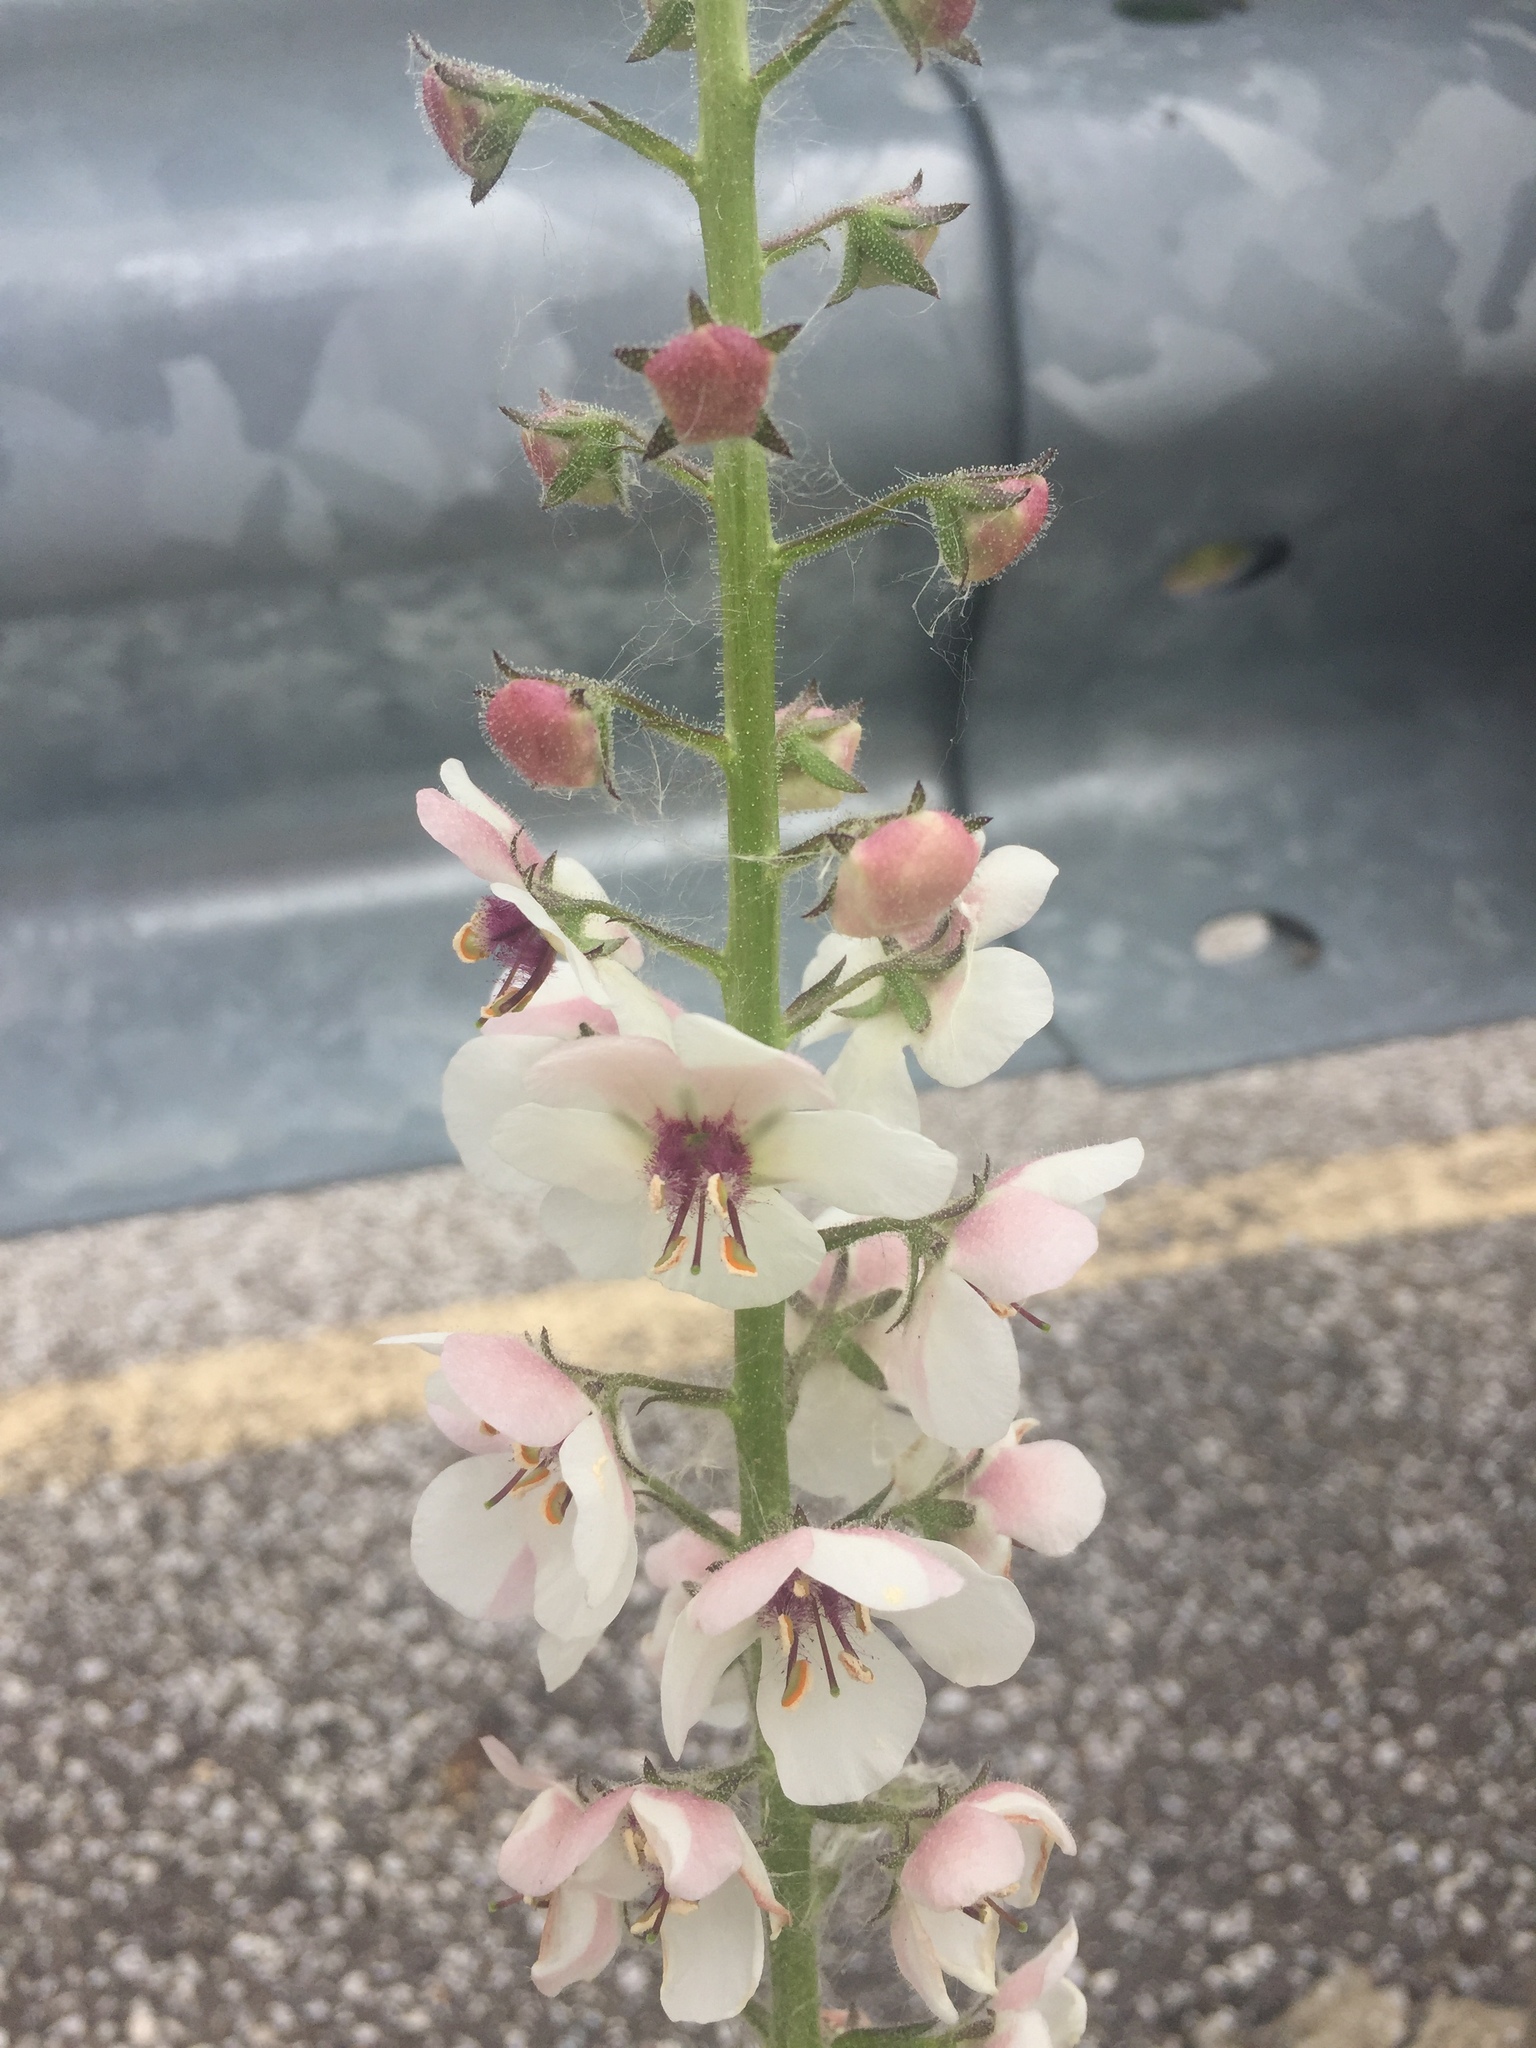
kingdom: Plantae
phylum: Tracheophyta
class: Magnoliopsida
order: Lamiales
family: Scrophulariaceae
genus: Verbascum
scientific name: Verbascum blattaria
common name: Moth mullein
